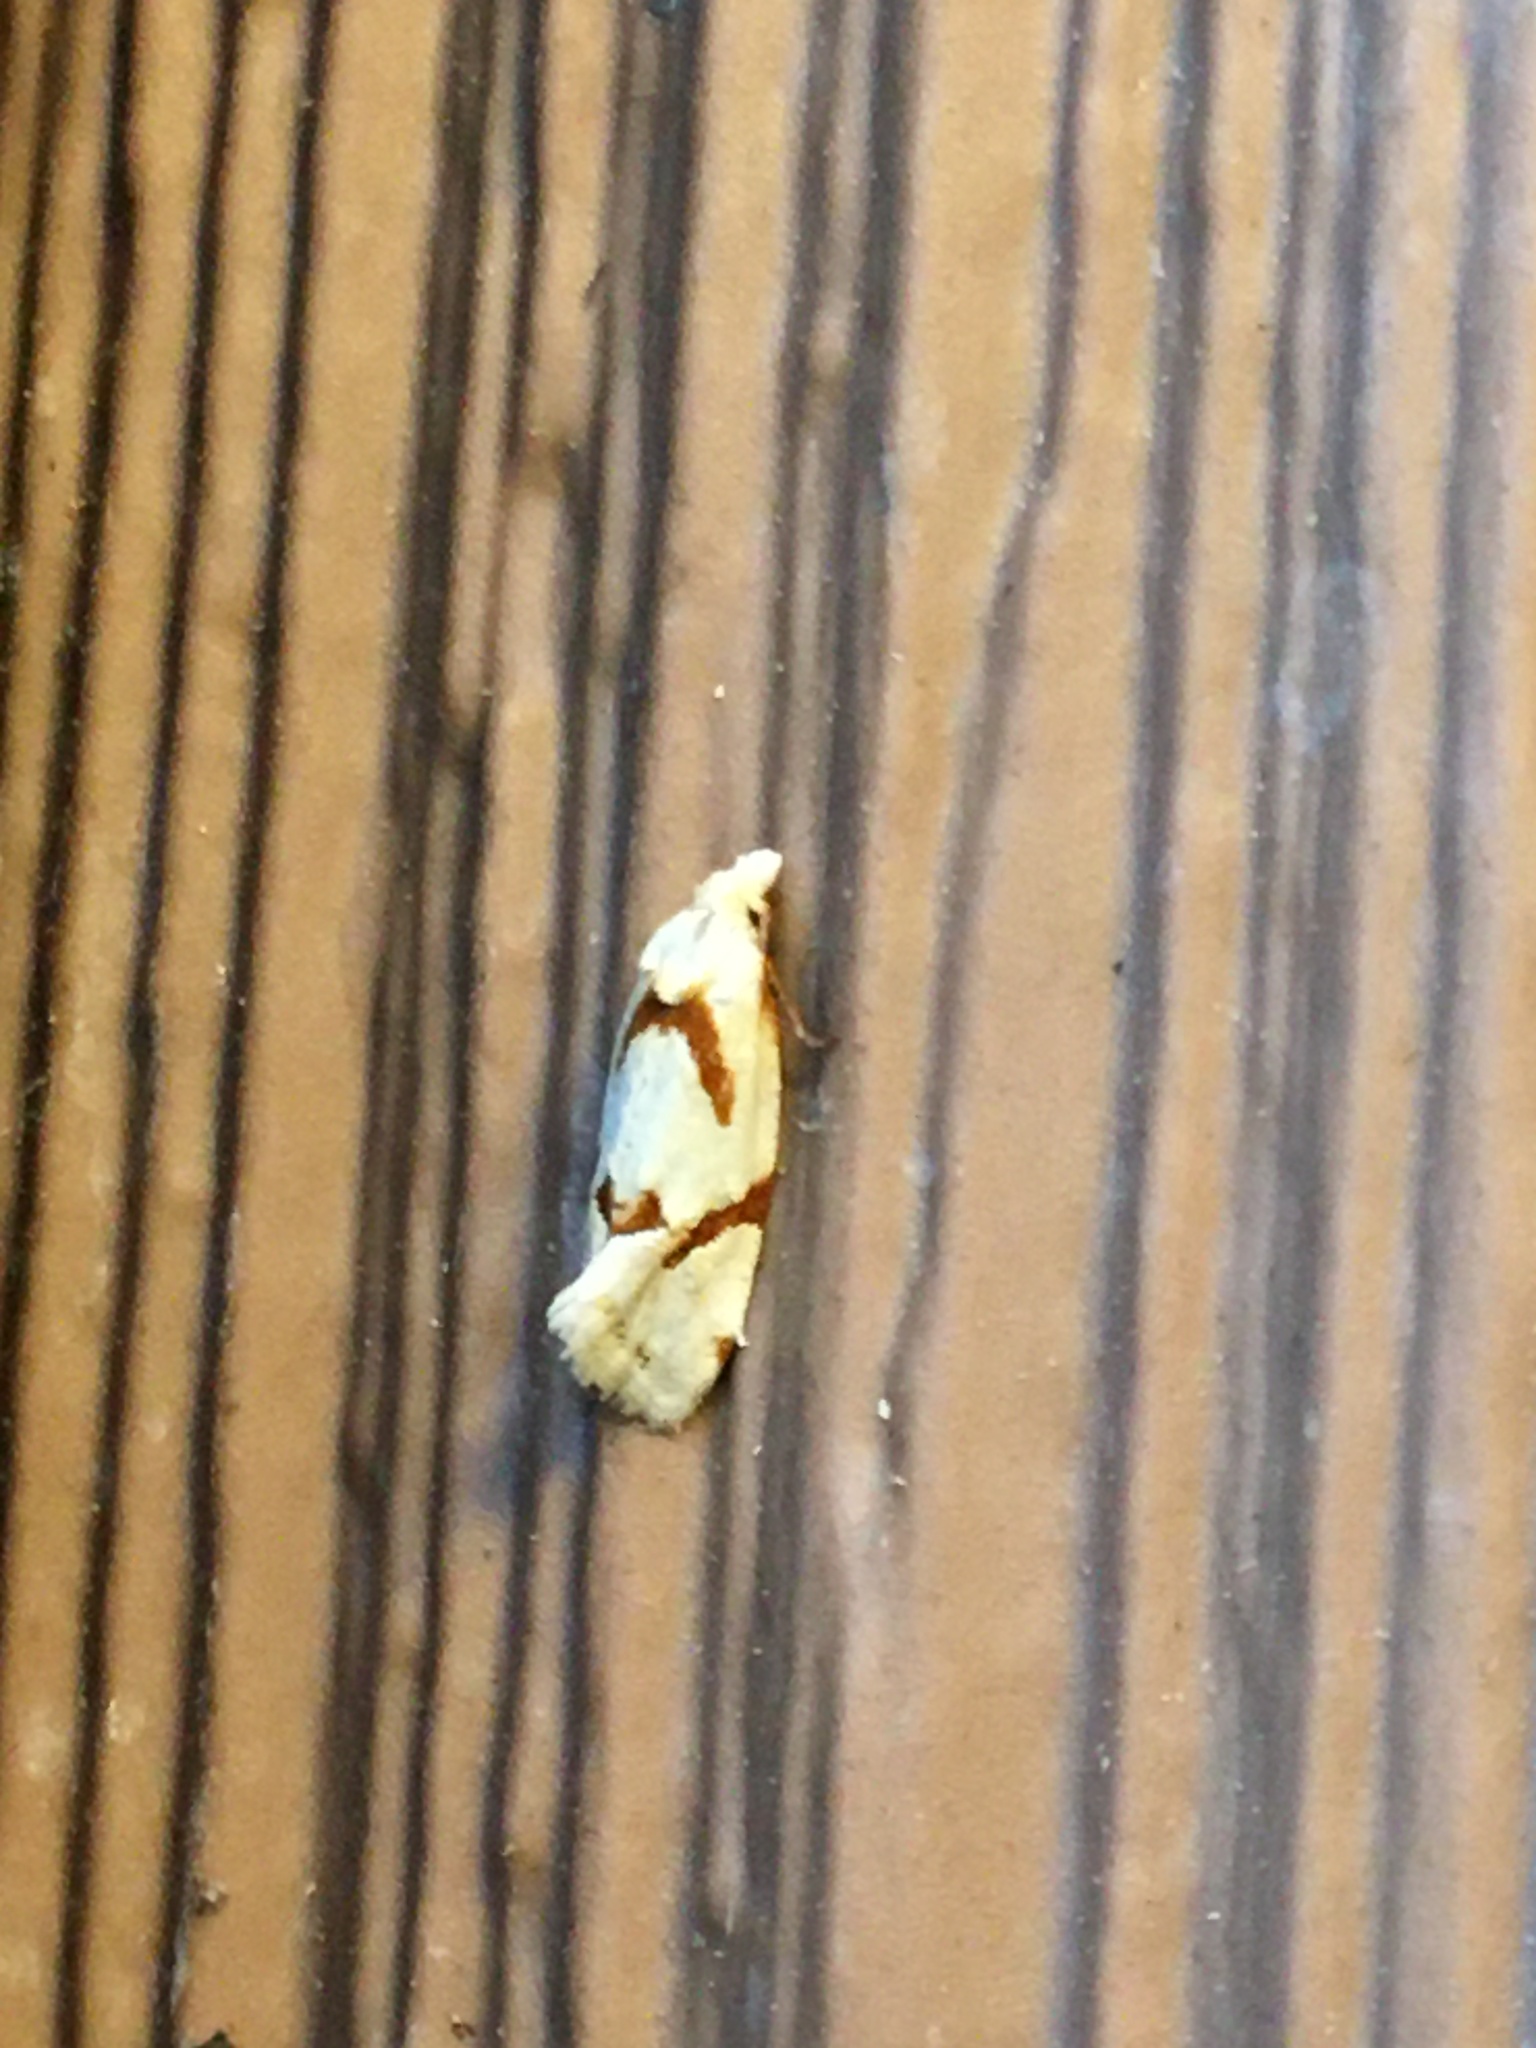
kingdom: Animalia
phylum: Arthropoda
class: Insecta
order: Lepidoptera
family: Tortricidae
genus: Aethes
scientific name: Aethes baloghi
